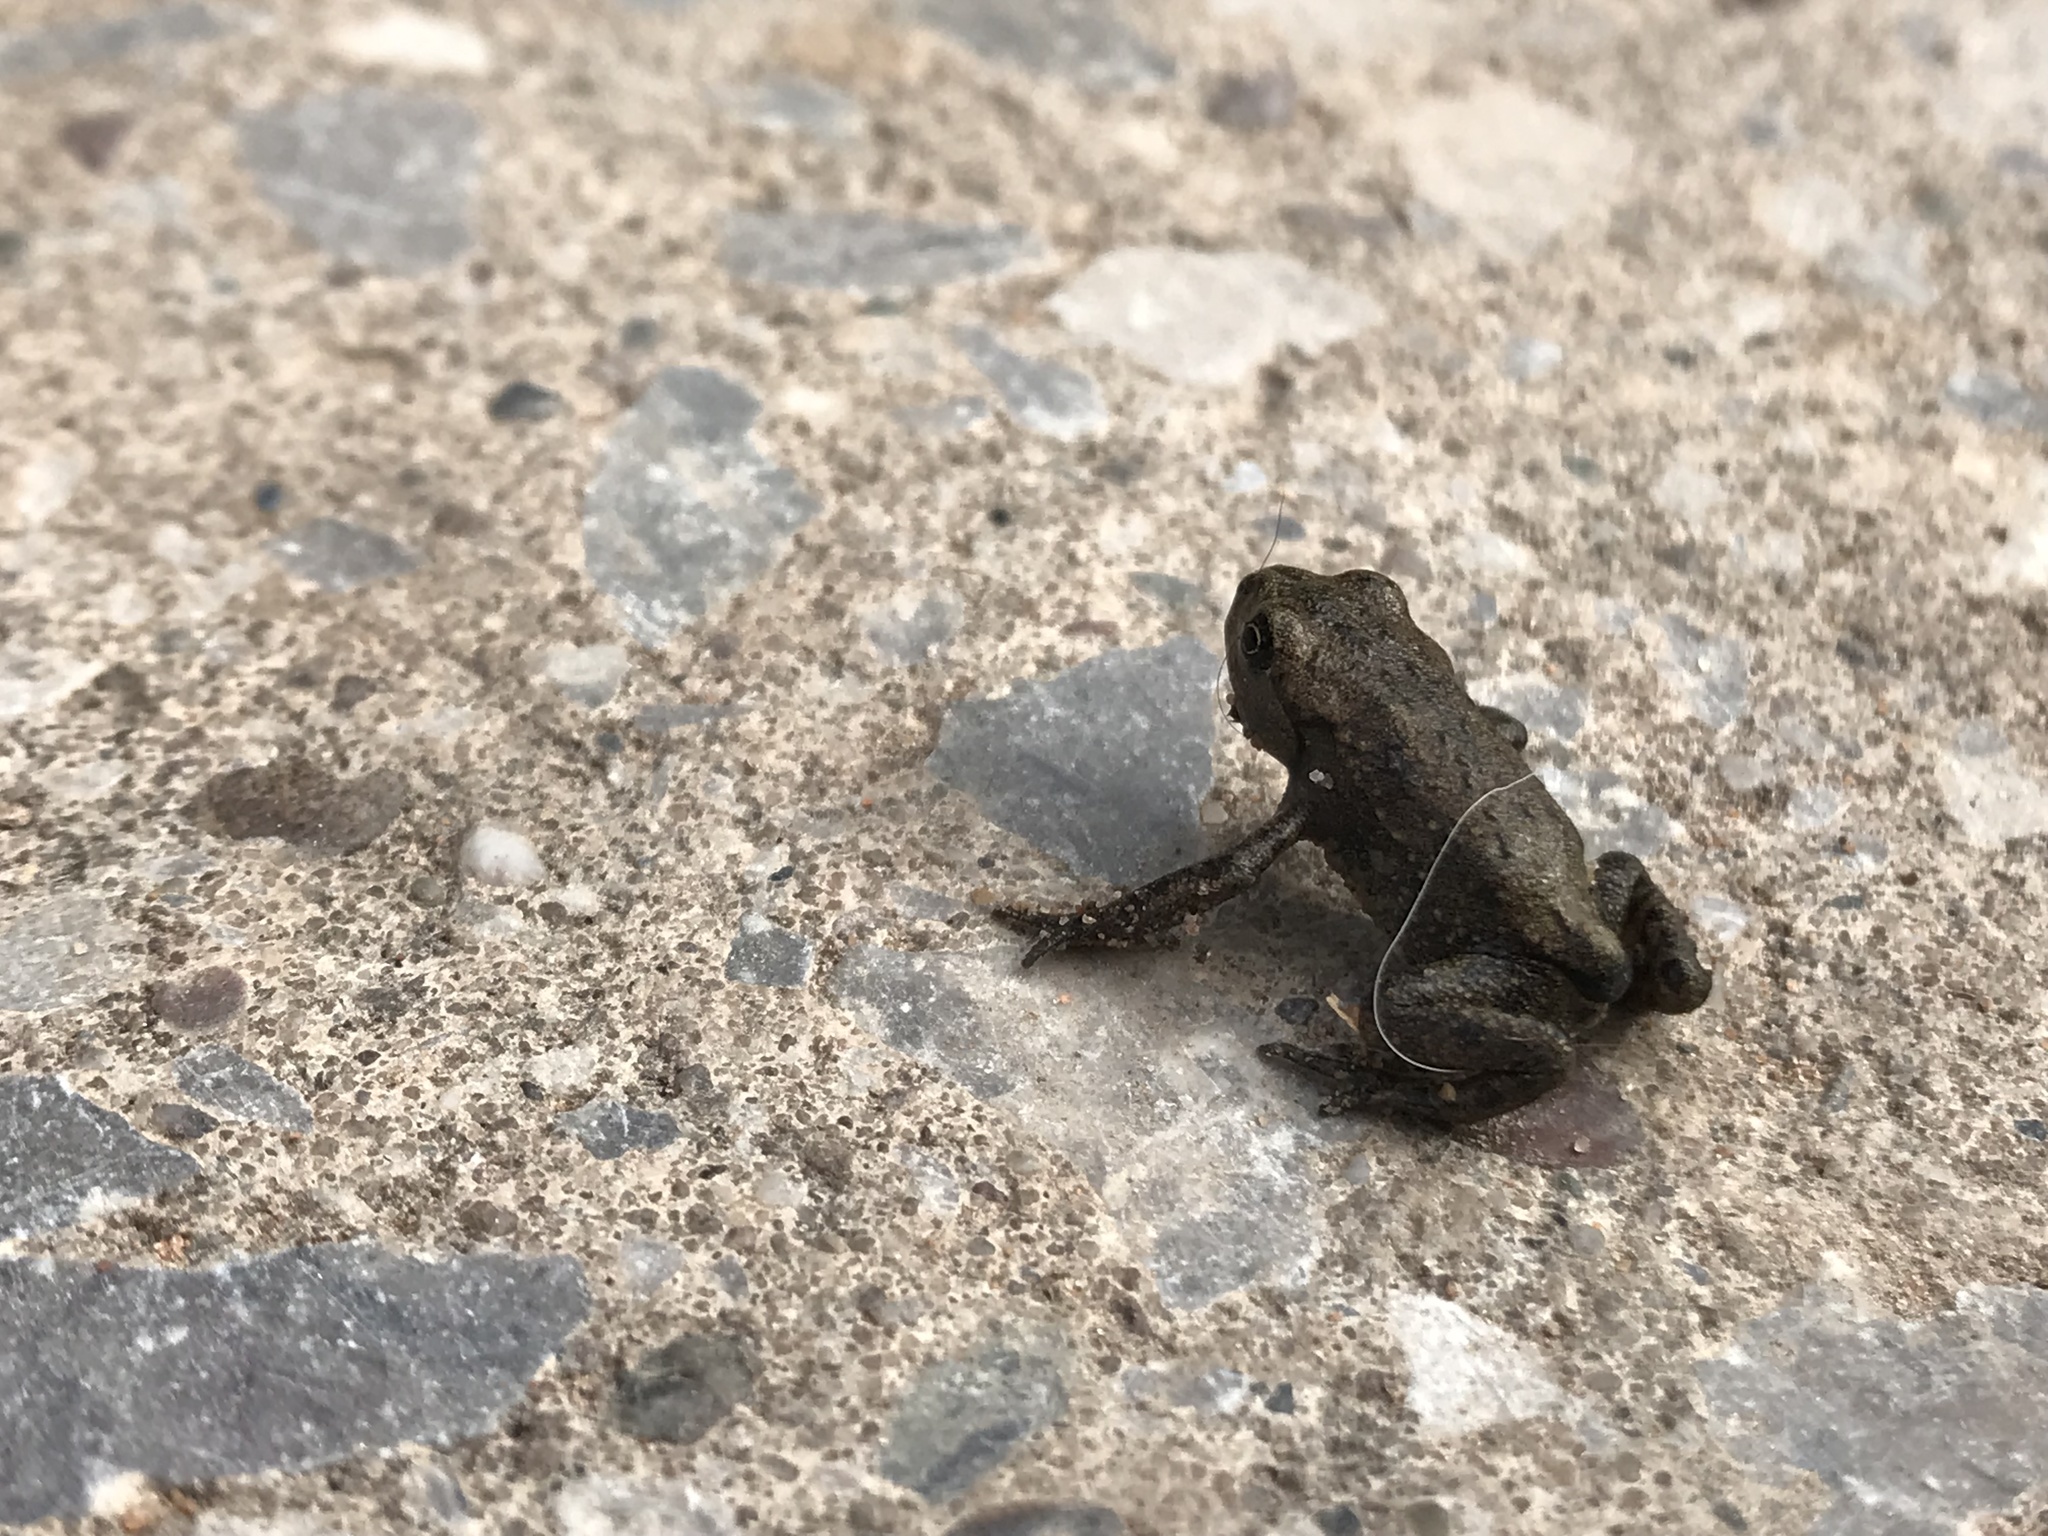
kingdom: Animalia
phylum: Chordata
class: Amphibia
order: Anura
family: Bufonidae
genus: Bufo
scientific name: Bufo bufo
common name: Common toad
